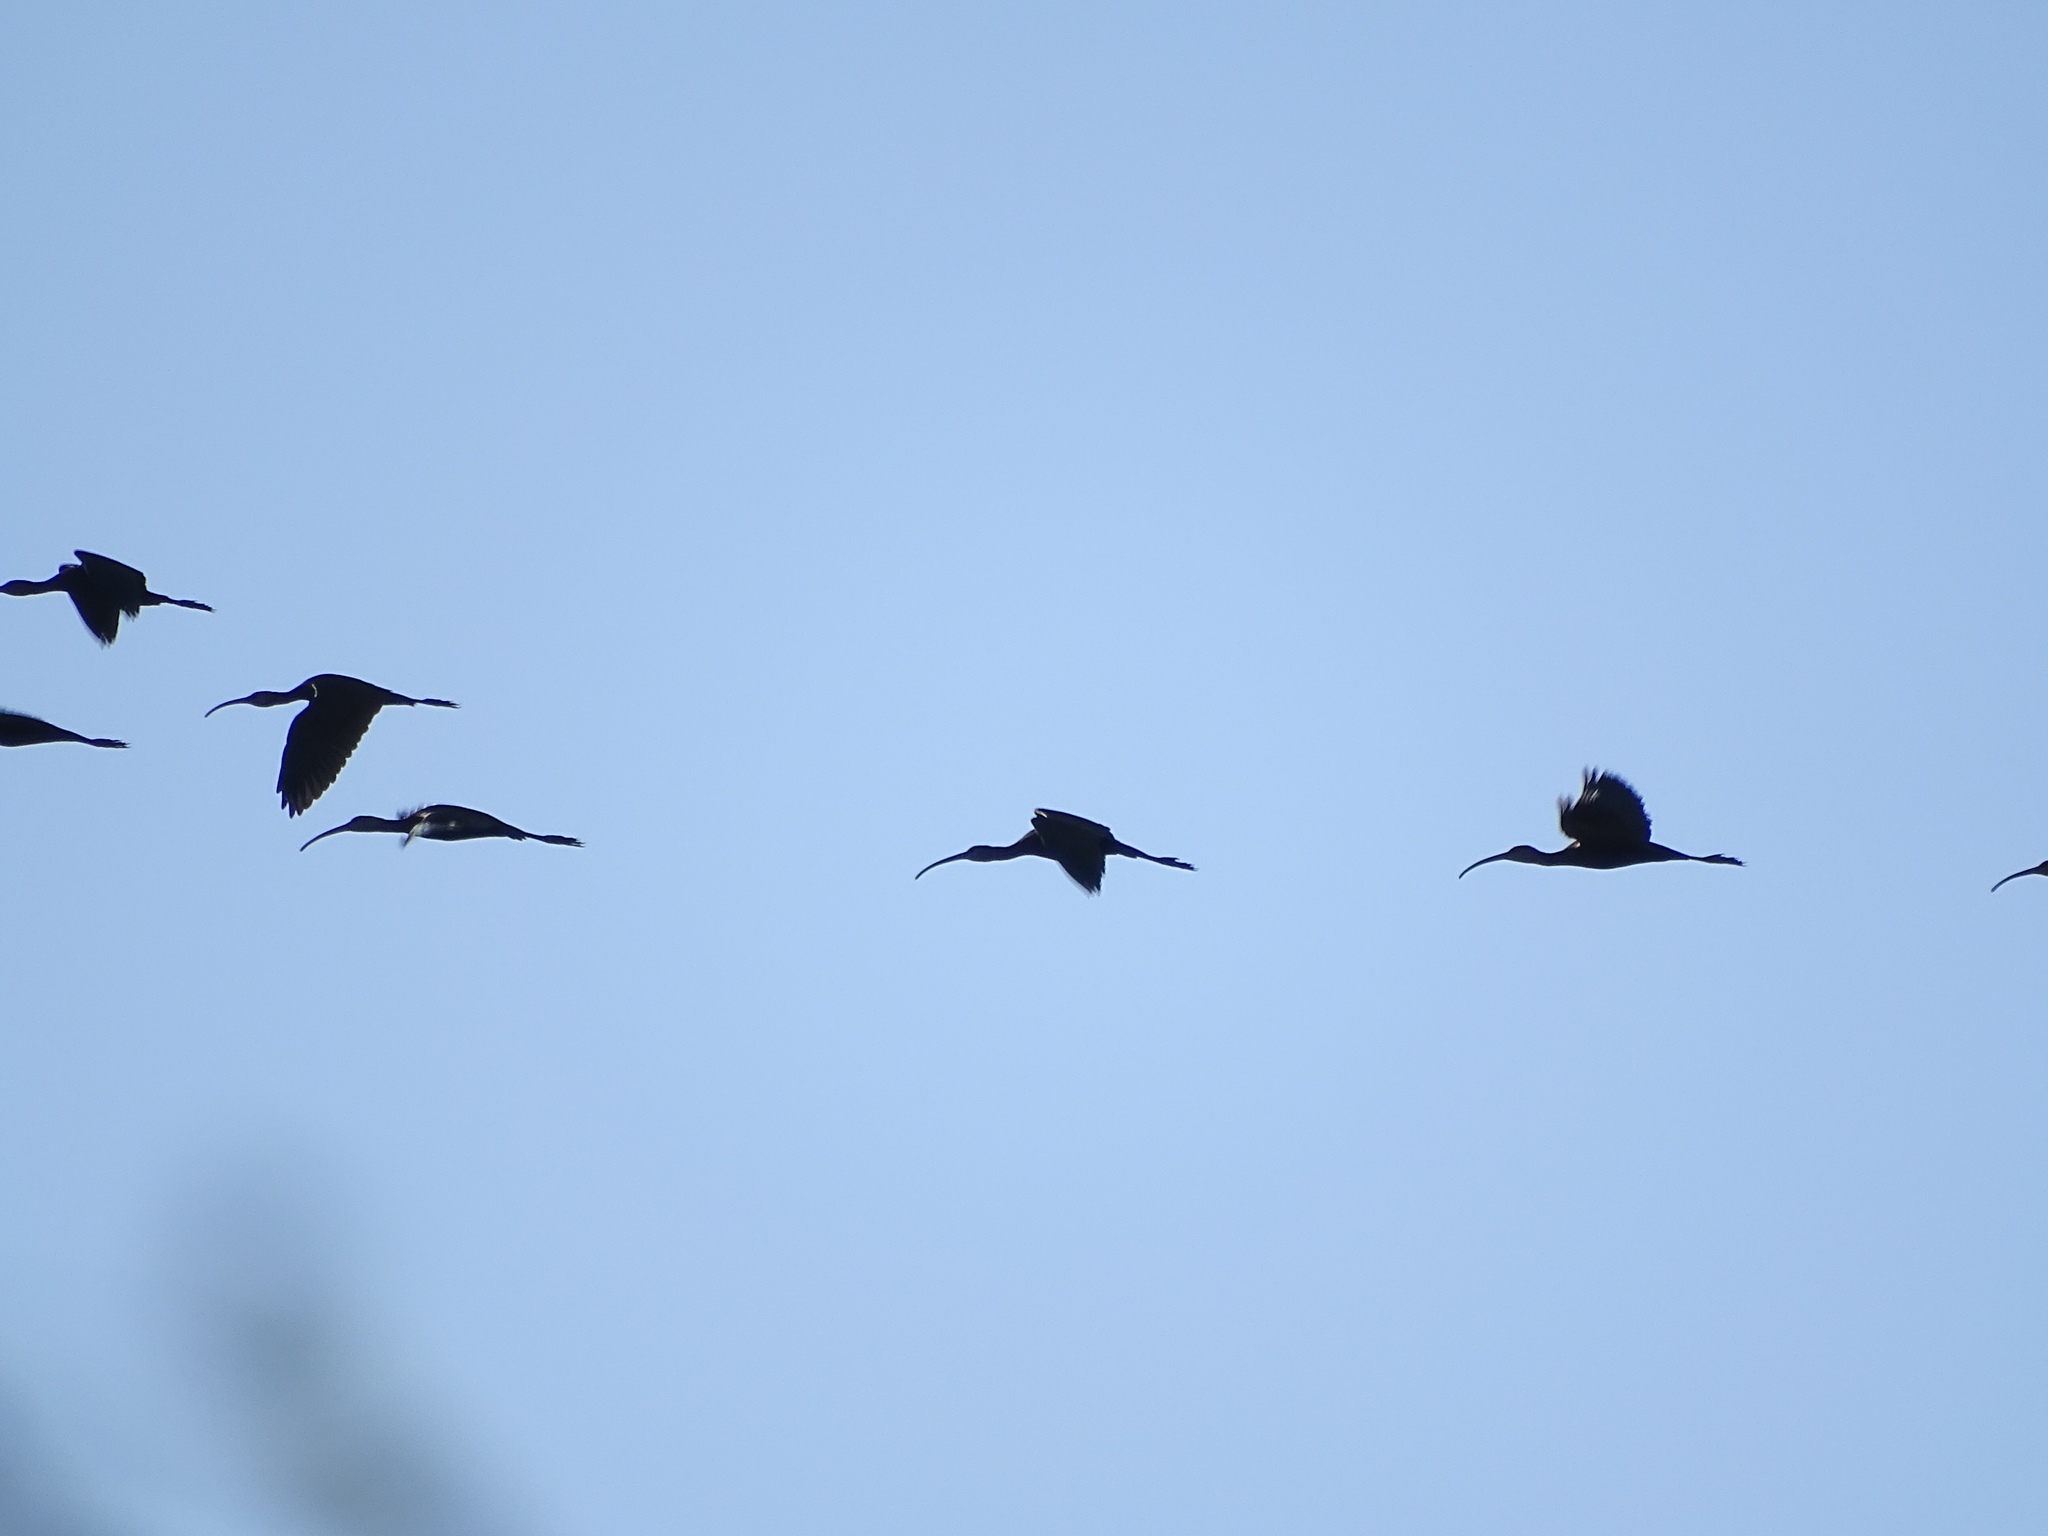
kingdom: Animalia
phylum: Chordata
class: Aves
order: Pelecaniformes
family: Threskiornithidae
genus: Plegadis
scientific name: Plegadis chihi
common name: White-faced ibis
